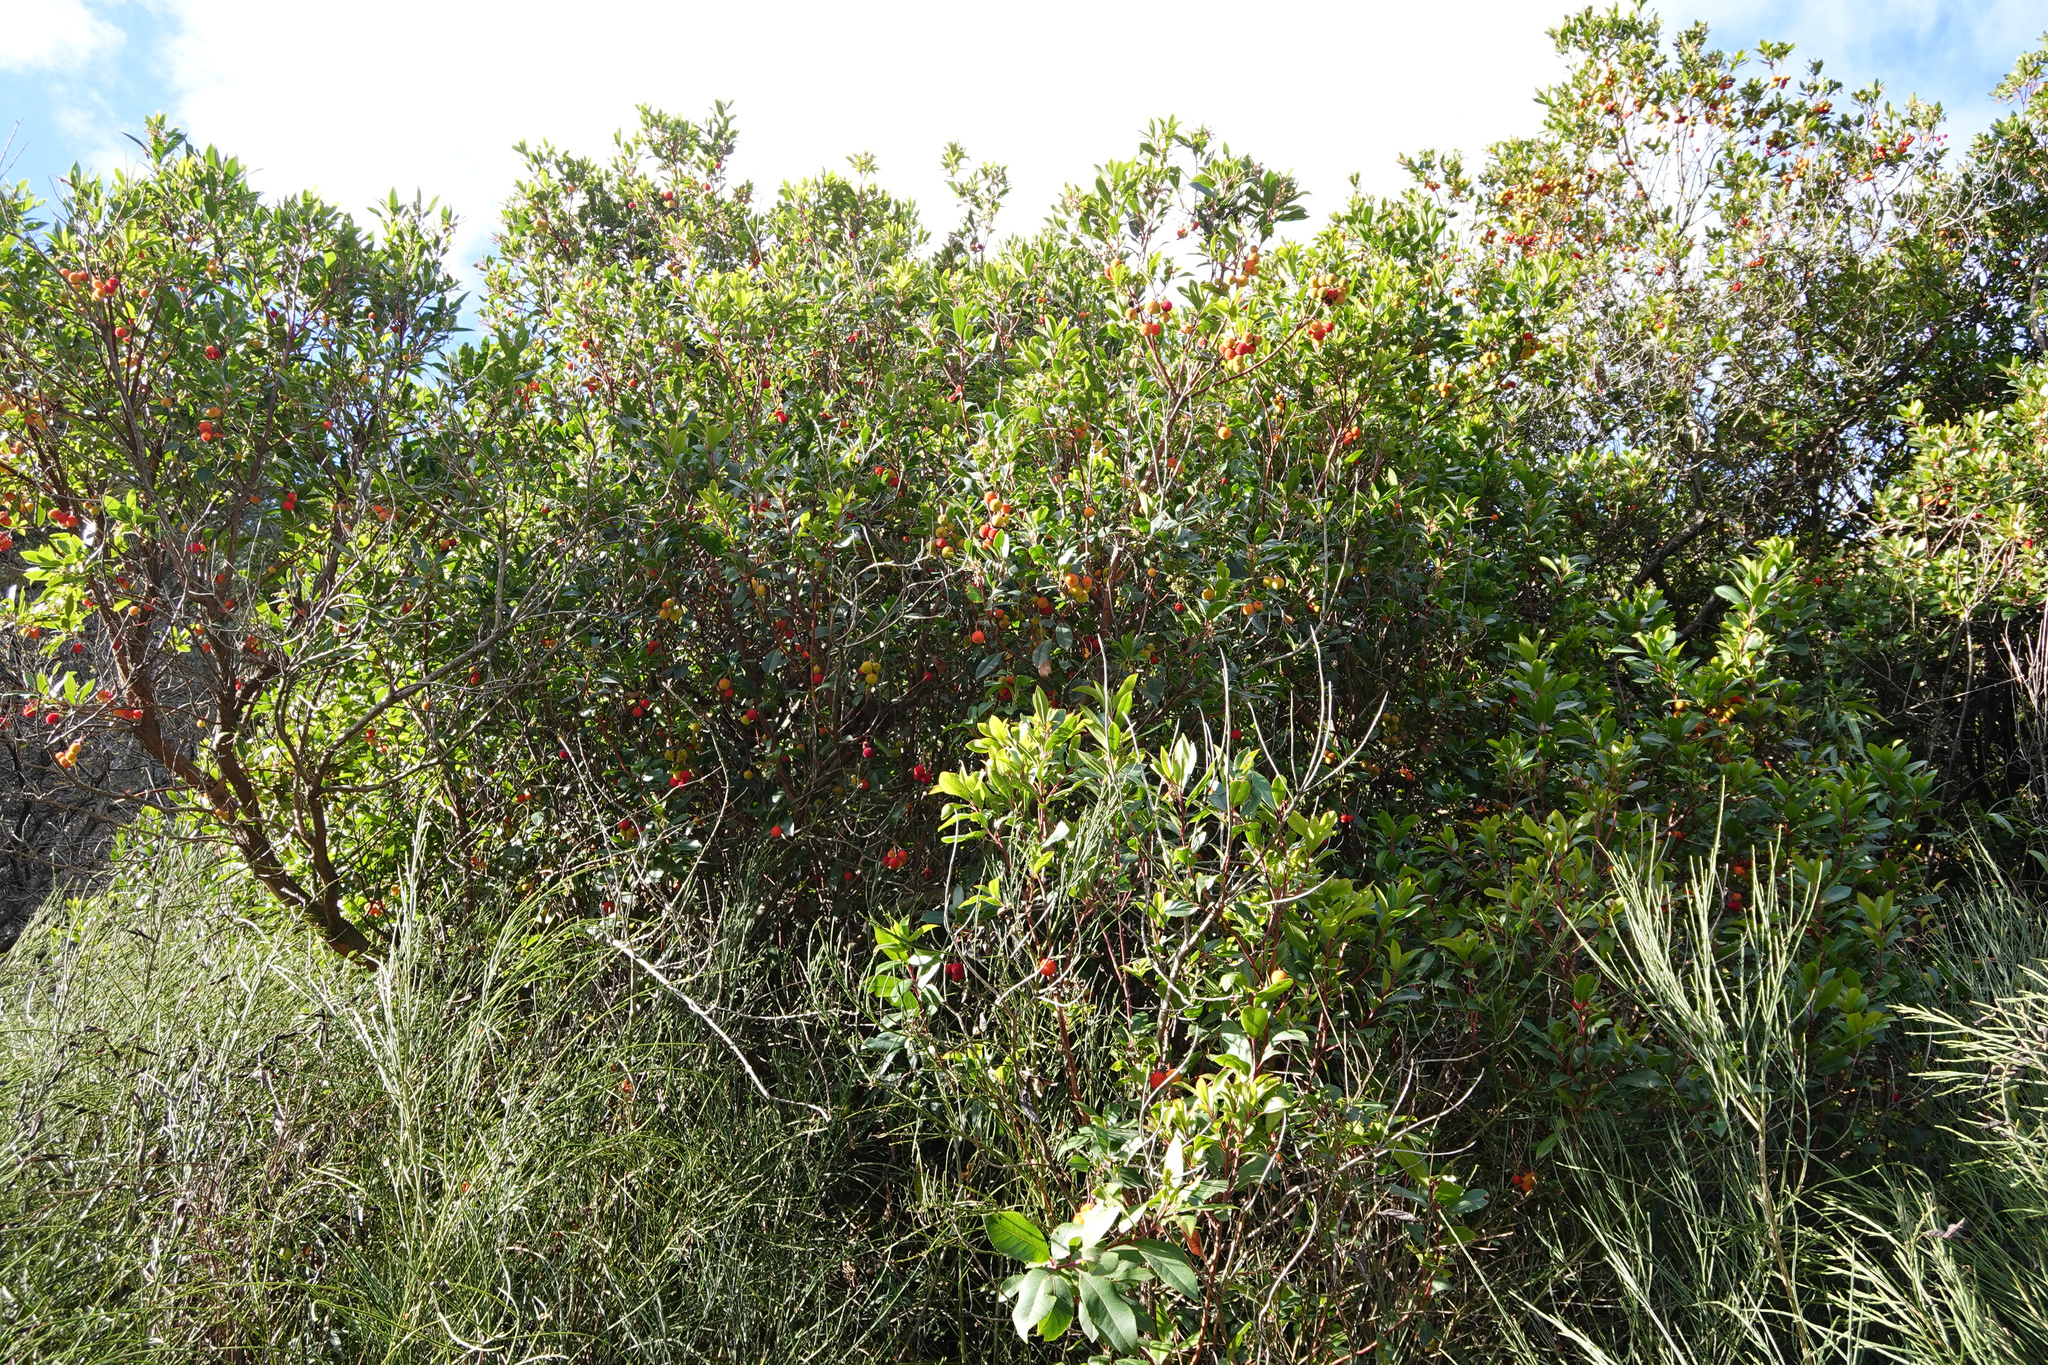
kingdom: Plantae
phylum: Tracheophyta
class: Magnoliopsida
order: Ericales
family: Ericaceae
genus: Arbutus
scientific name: Arbutus unedo
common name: Strawberry-tree
